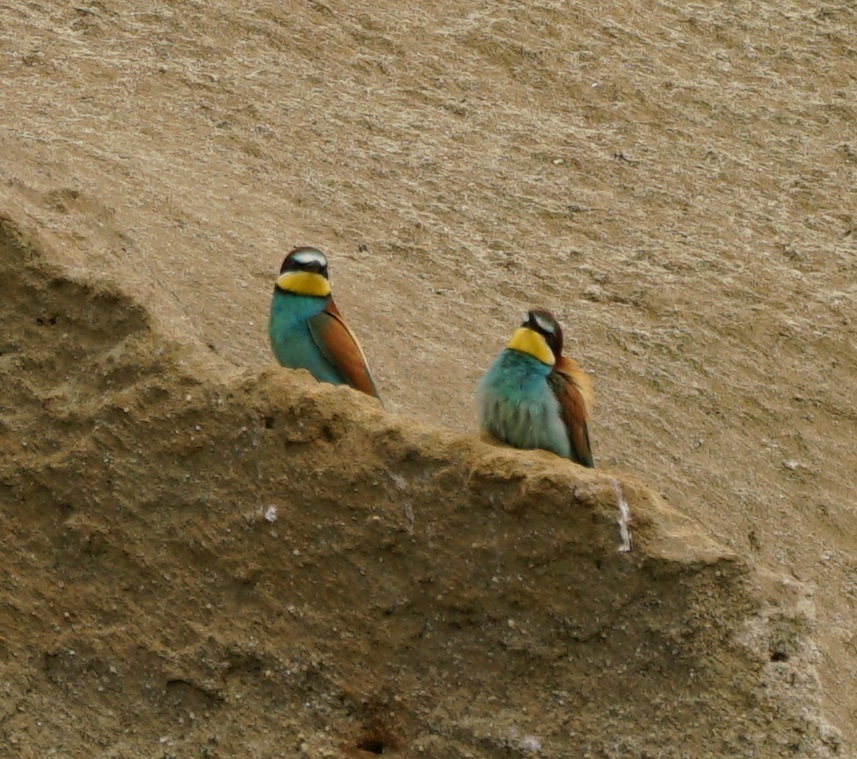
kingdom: Animalia
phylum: Chordata
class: Aves
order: Coraciiformes
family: Meropidae
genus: Merops
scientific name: Merops apiaster
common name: European bee-eater
